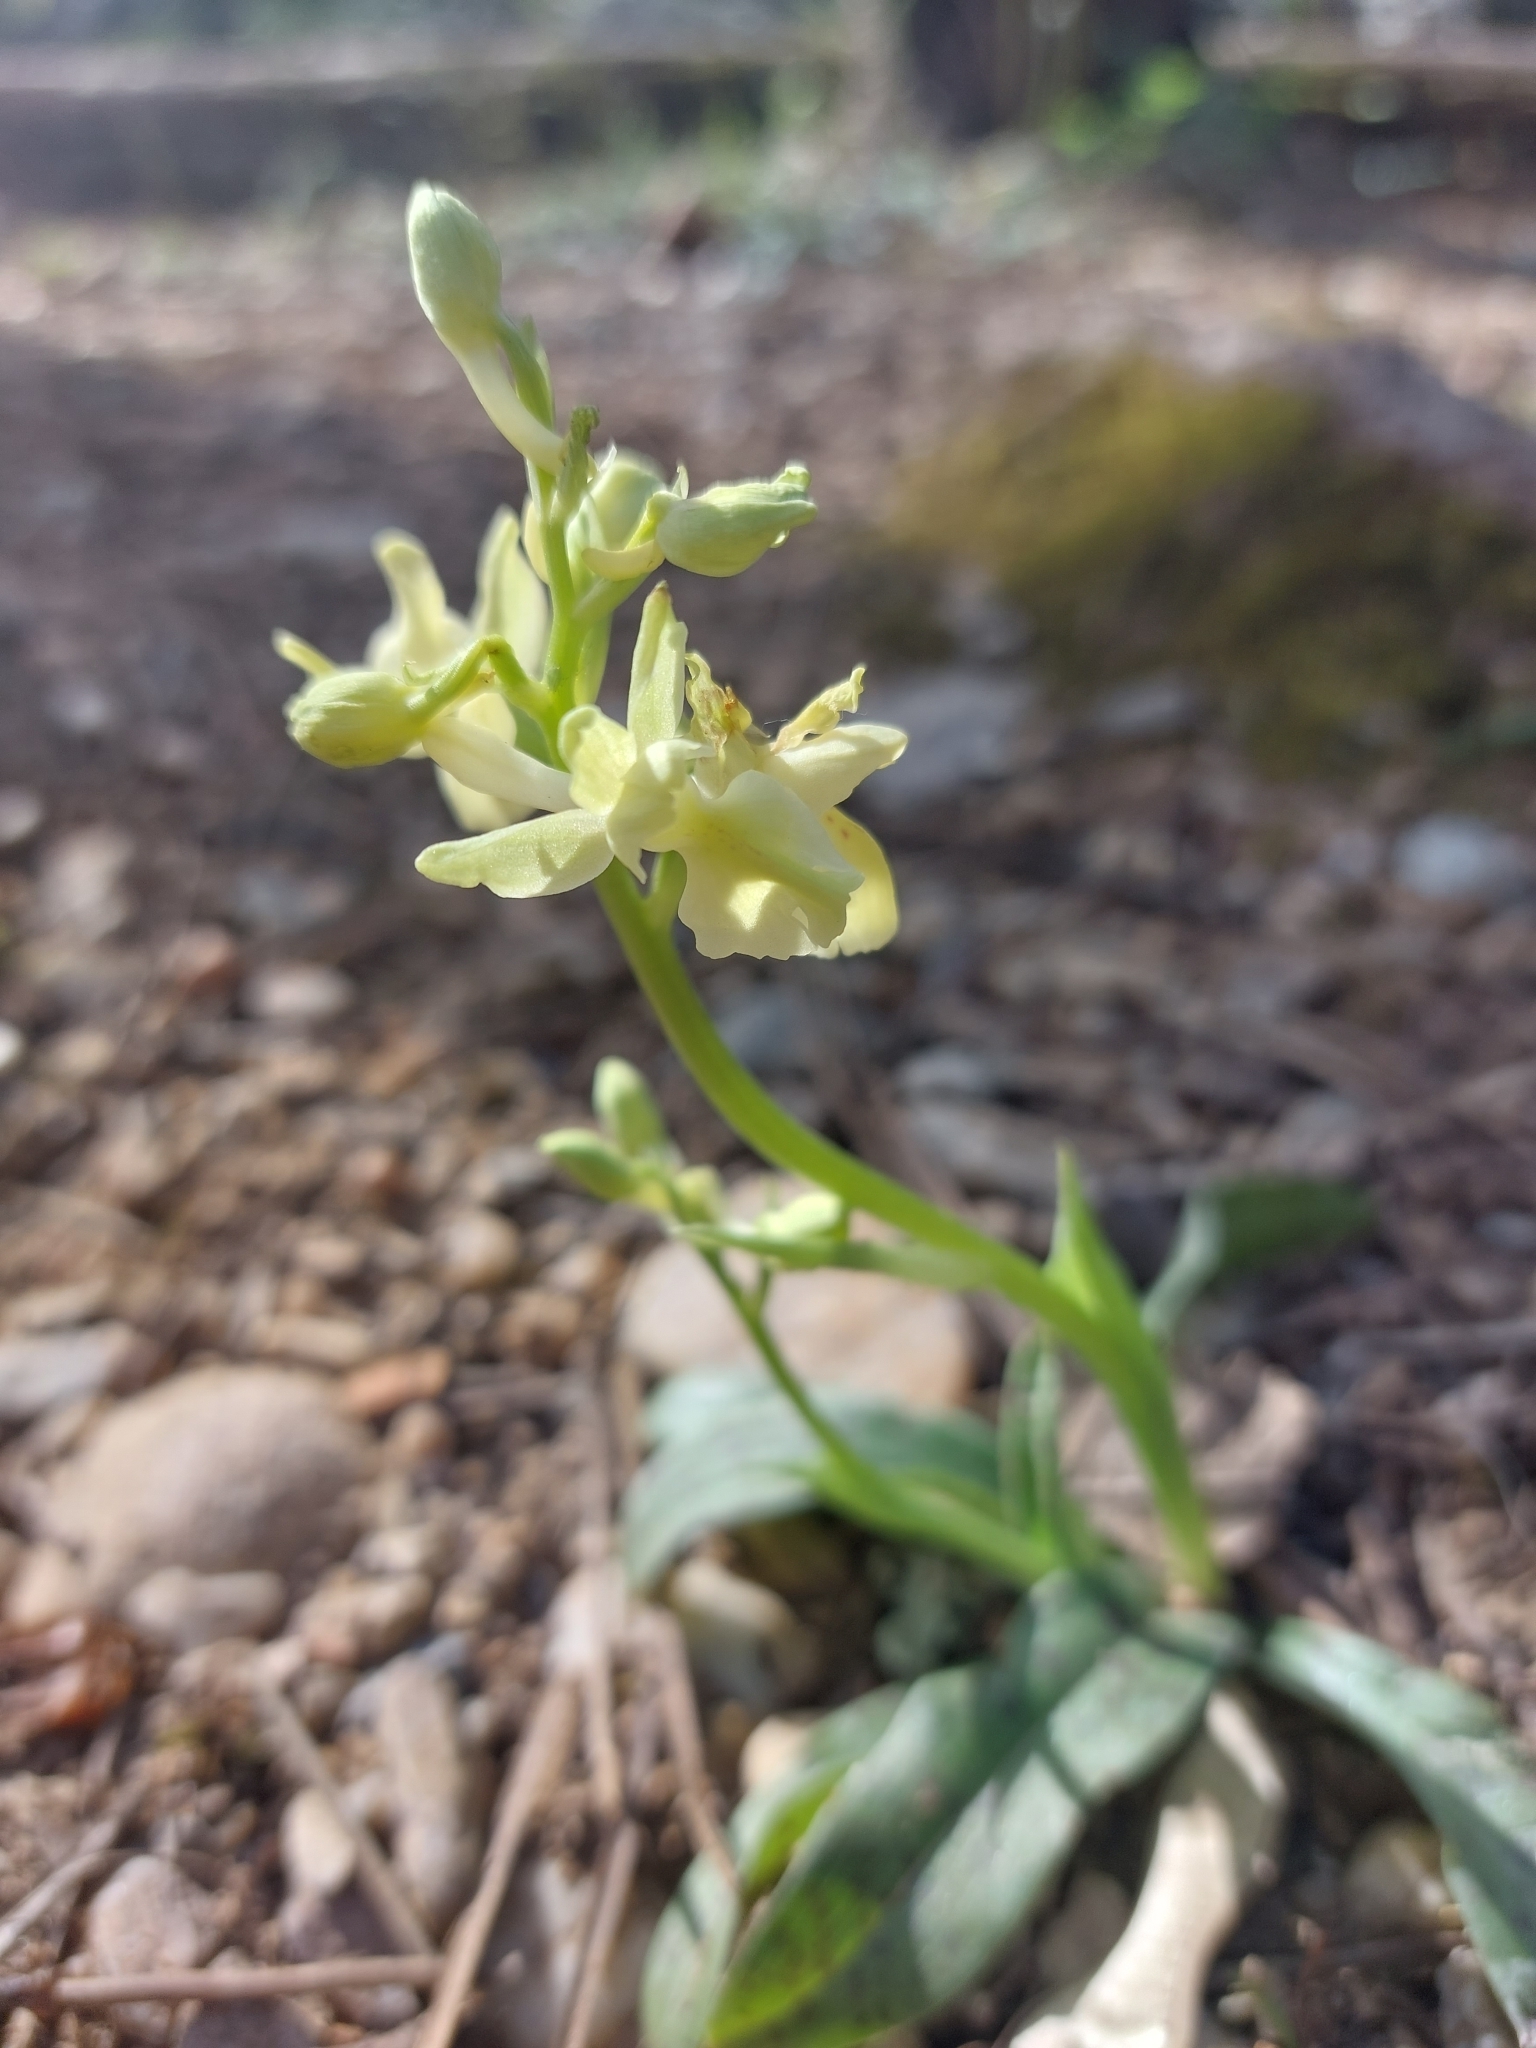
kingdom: Plantae
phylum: Tracheophyta
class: Liliopsida
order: Asparagales
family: Orchidaceae
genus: Orchis
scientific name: Orchis provincialis
